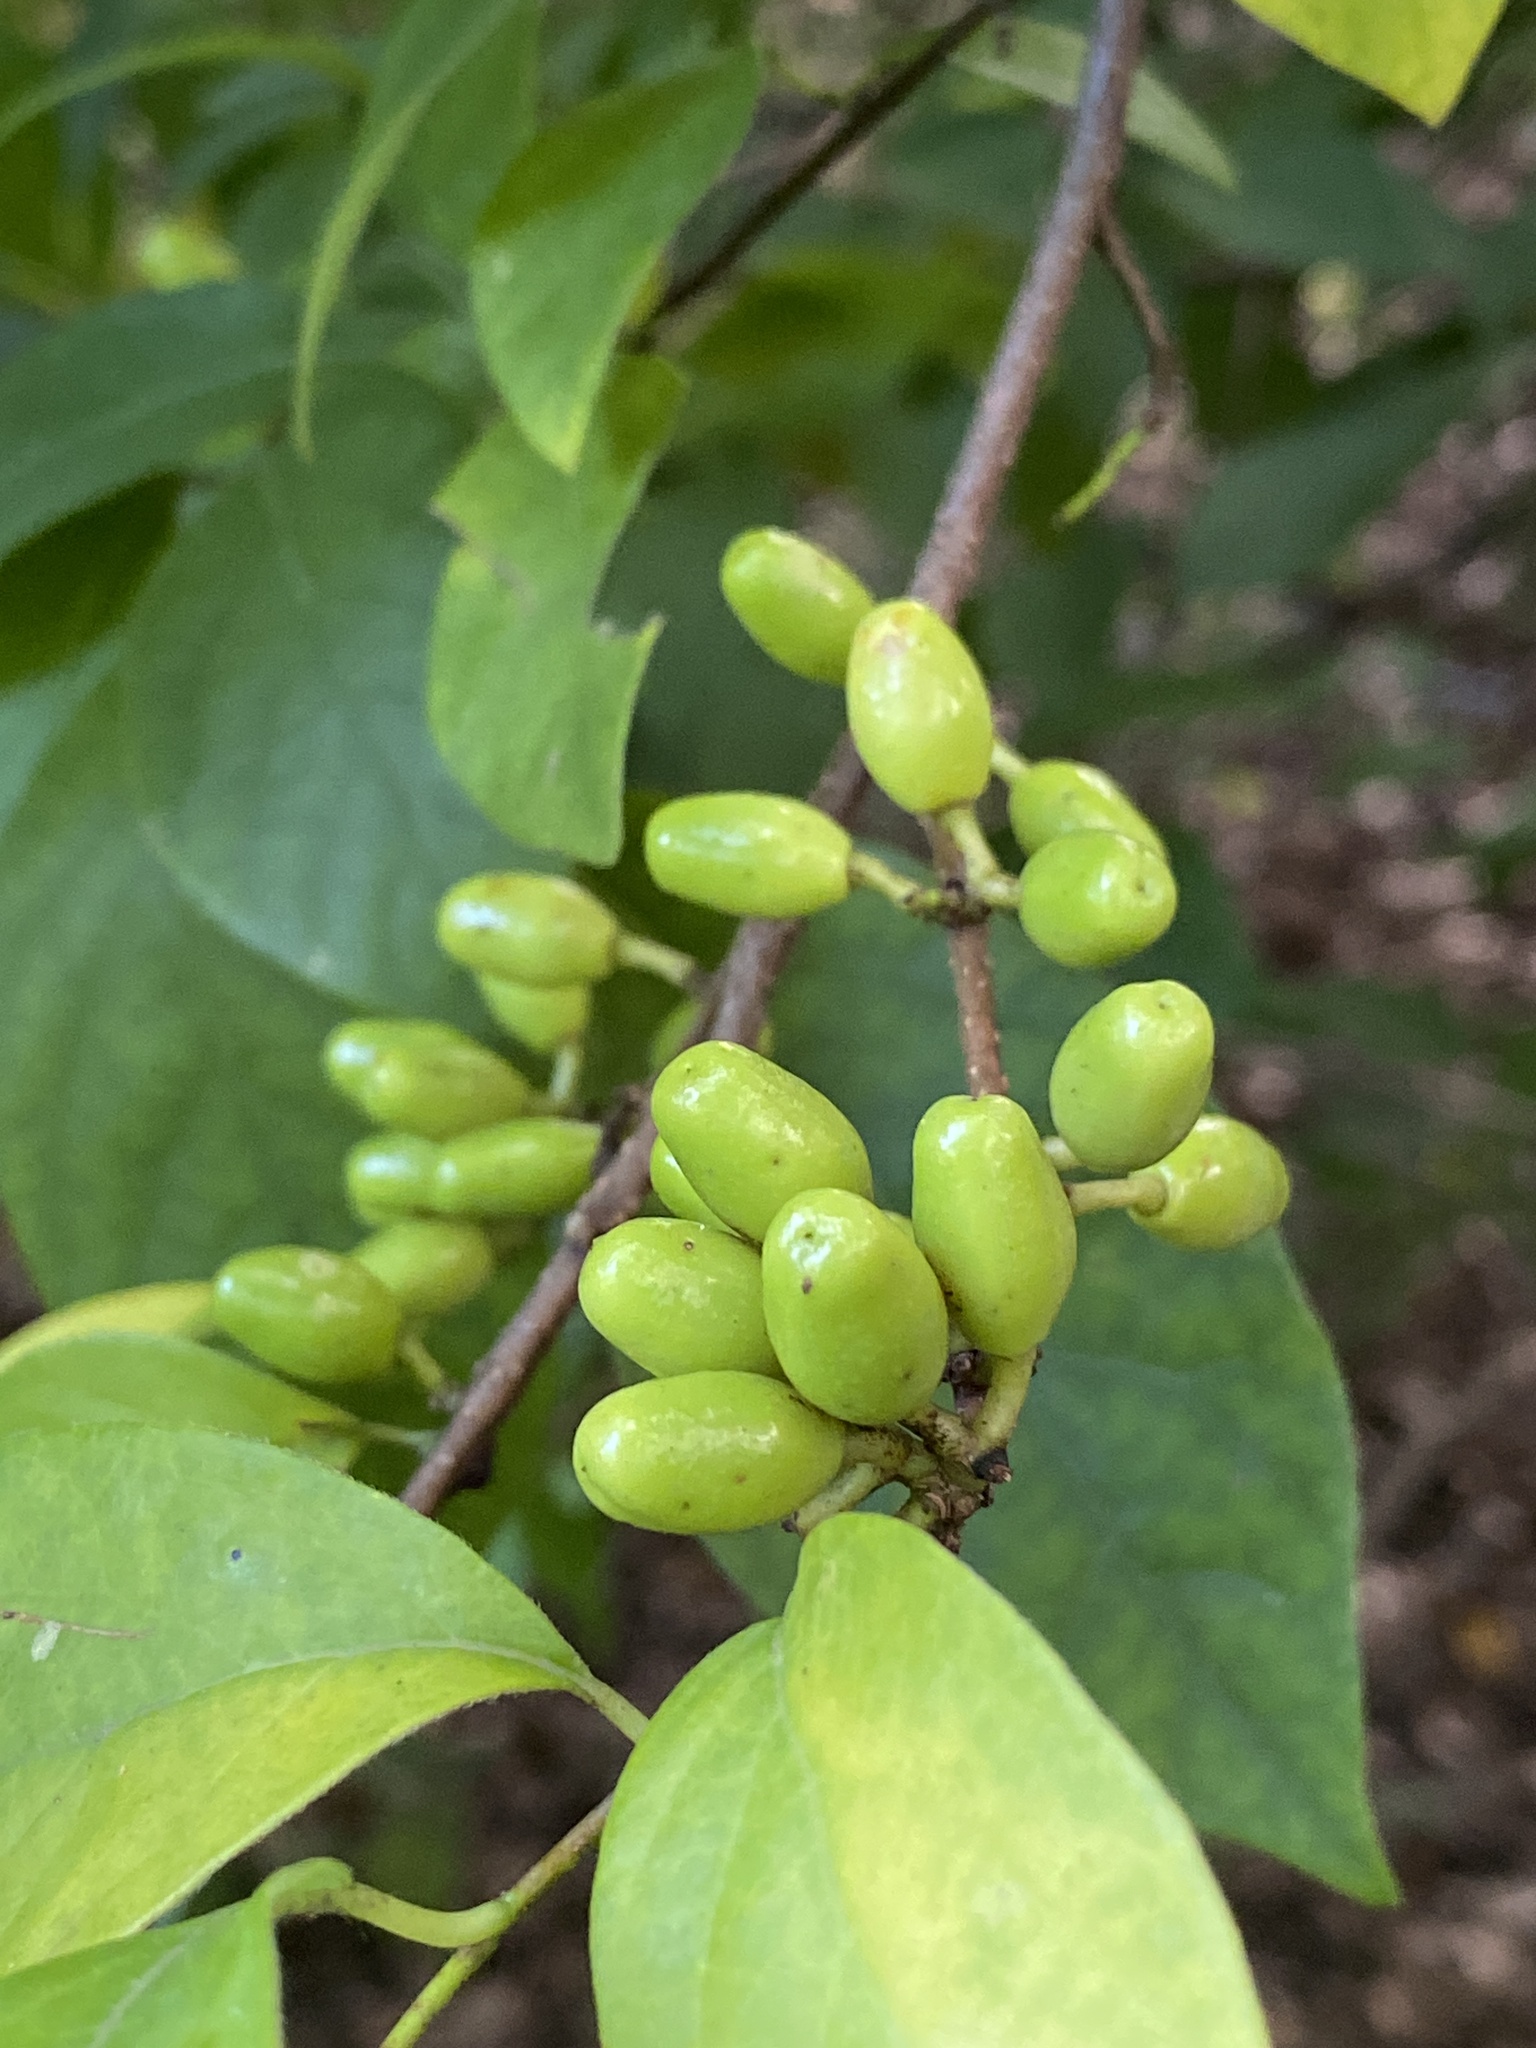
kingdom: Plantae
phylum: Tracheophyta
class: Magnoliopsida
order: Laurales
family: Lauraceae
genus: Lindera
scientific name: Lindera benzoin
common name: Spicebush
